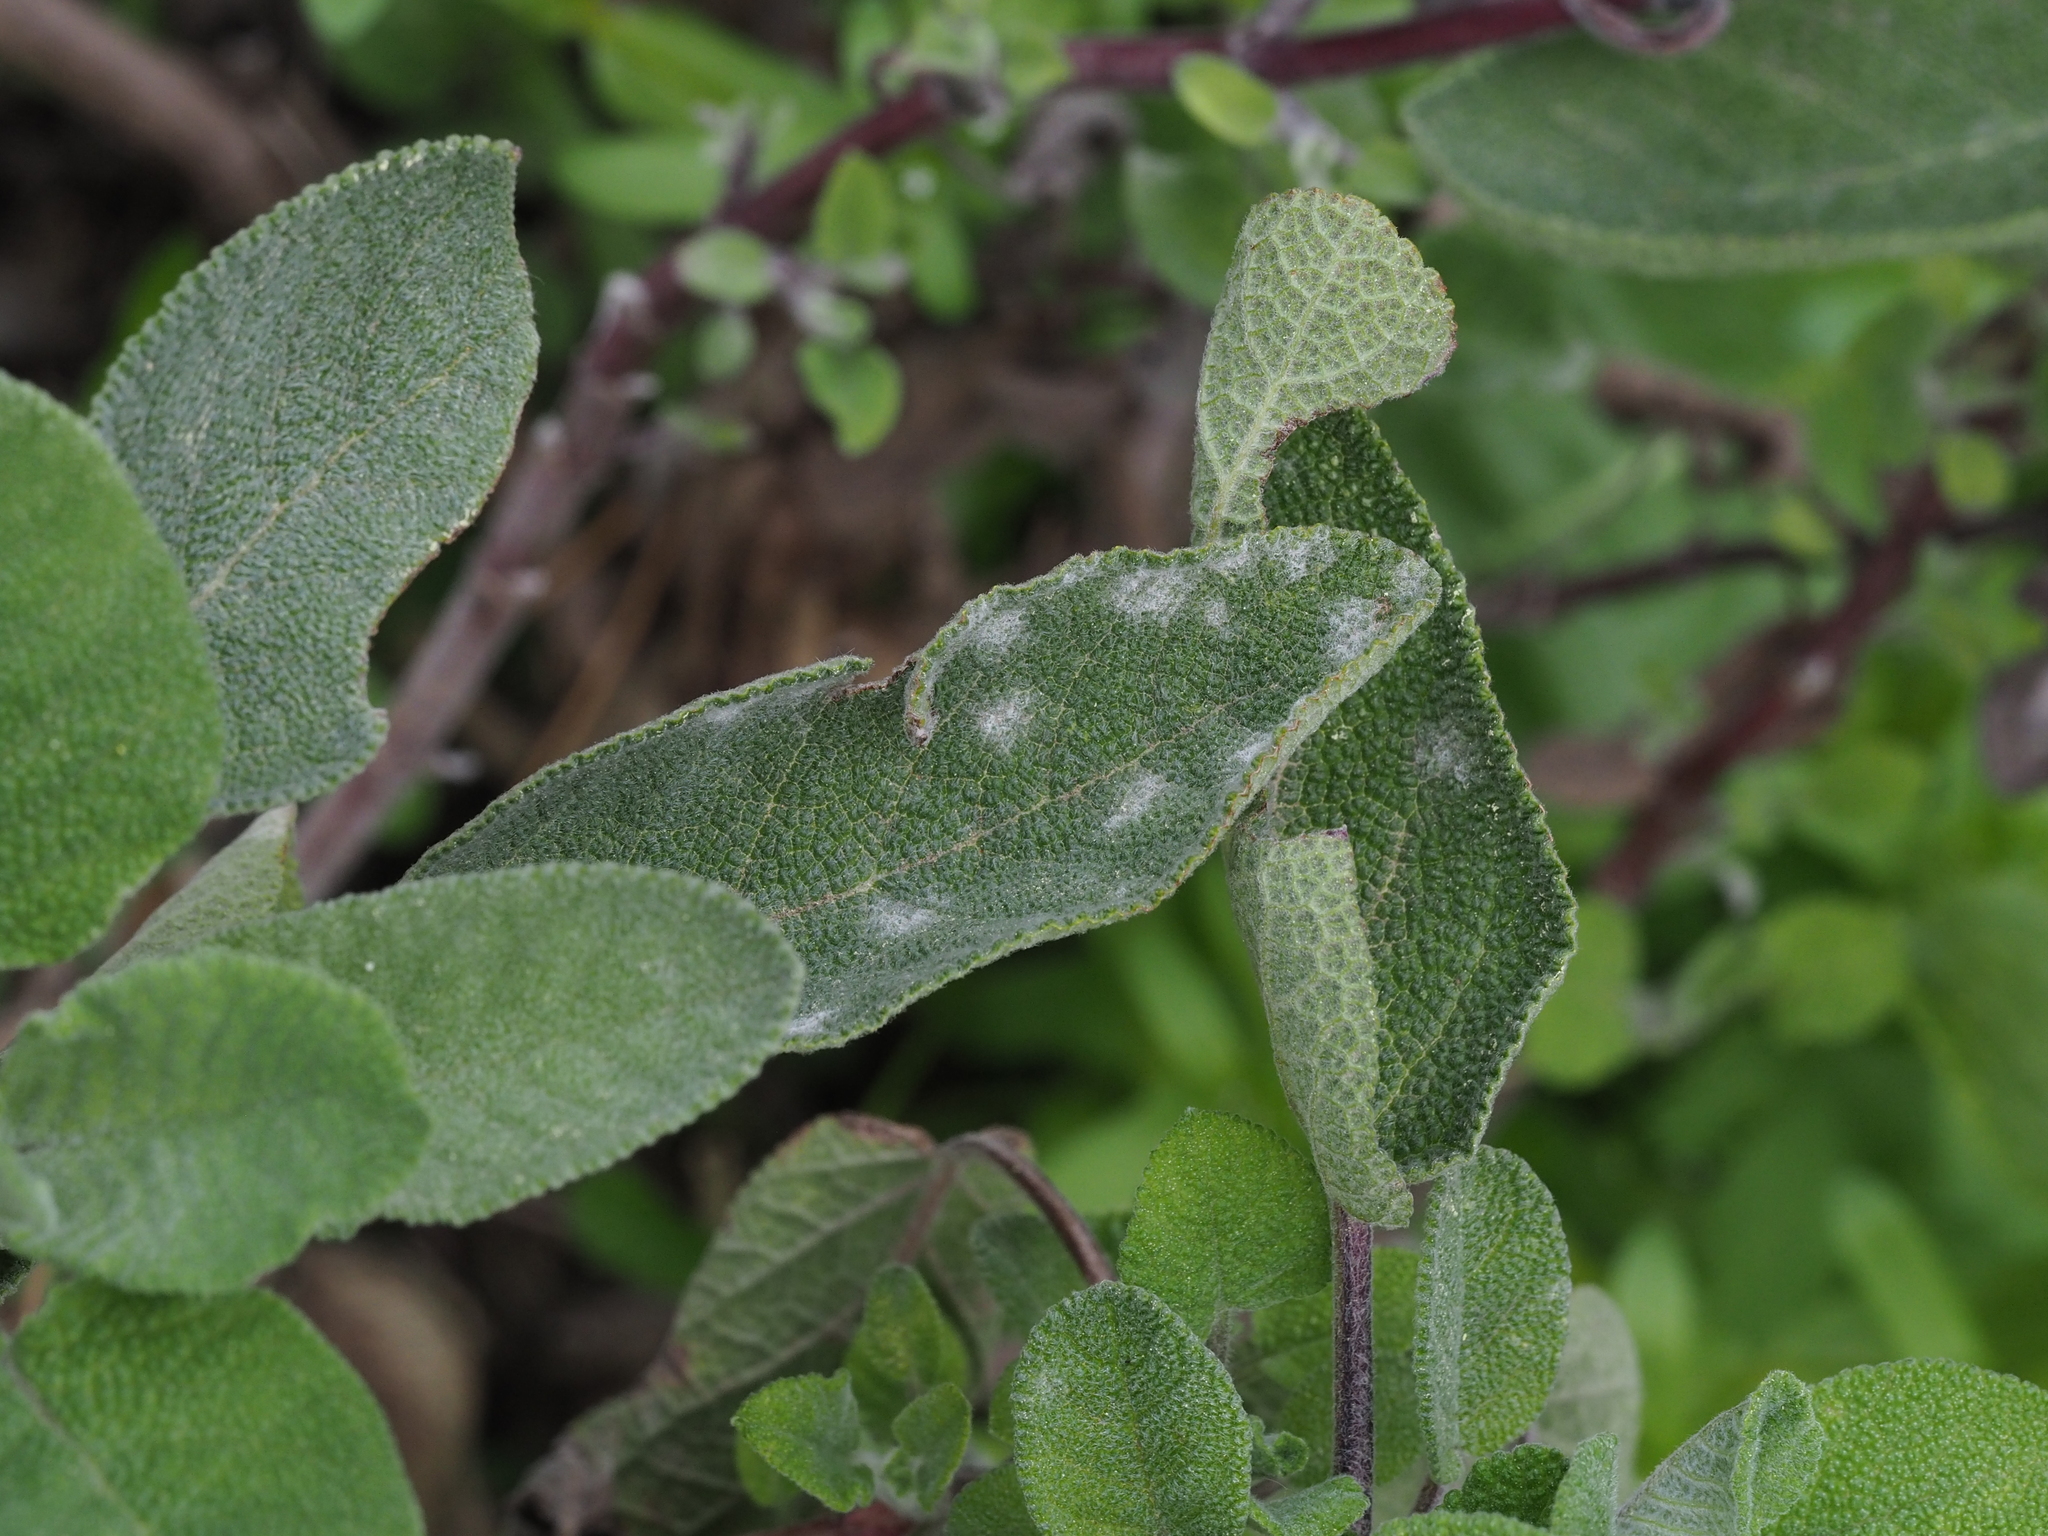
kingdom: Fungi
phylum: Ascomycota
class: Leotiomycetes
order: Helotiales
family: Erysiphaceae
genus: Golovinomyces
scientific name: Golovinomyces neosalviae
